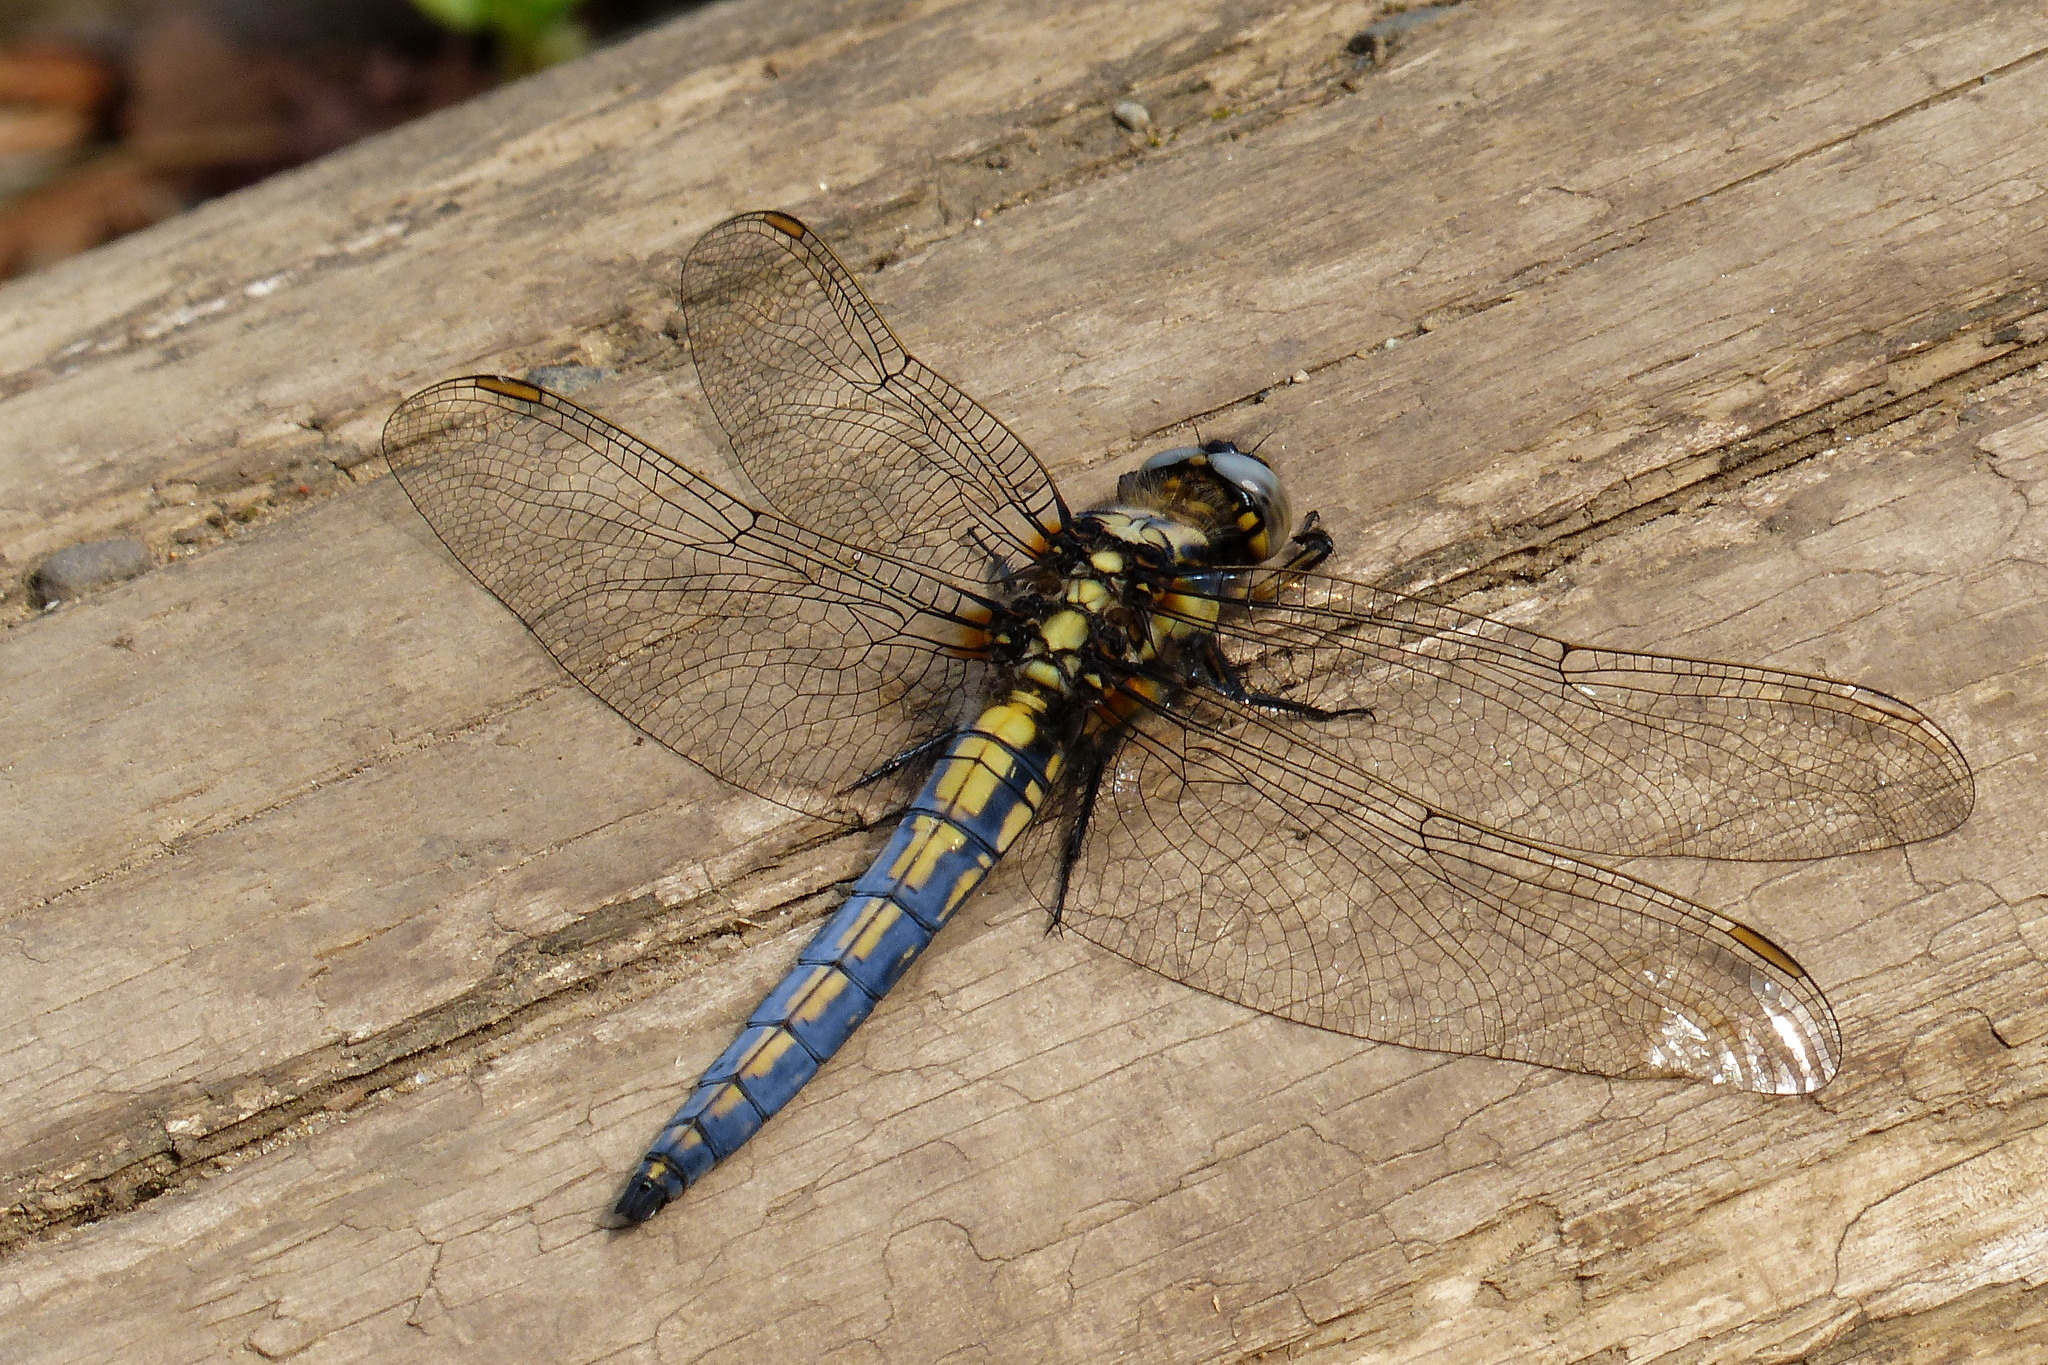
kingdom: Animalia
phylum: Arthropoda
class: Insecta
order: Odonata
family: Libellulidae
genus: Orthetrum
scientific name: Orthetrum japonicum
